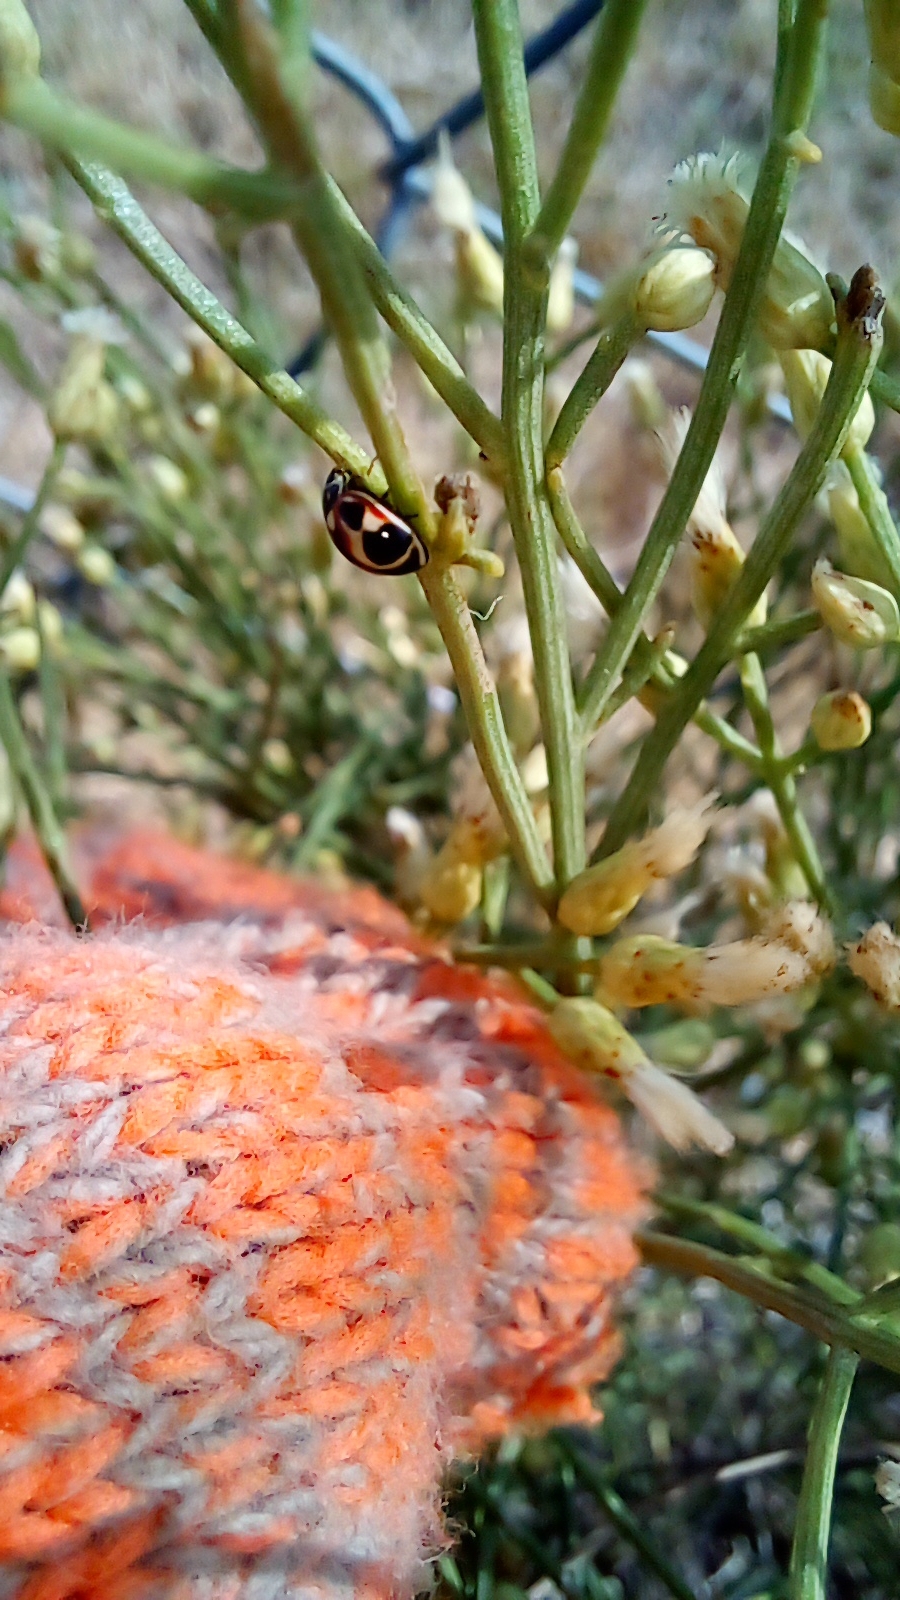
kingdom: Animalia
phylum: Arthropoda
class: Insecta
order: Coleoptera
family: Coccinellidae
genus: Cycloneda
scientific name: Cycloneda ancoralis
